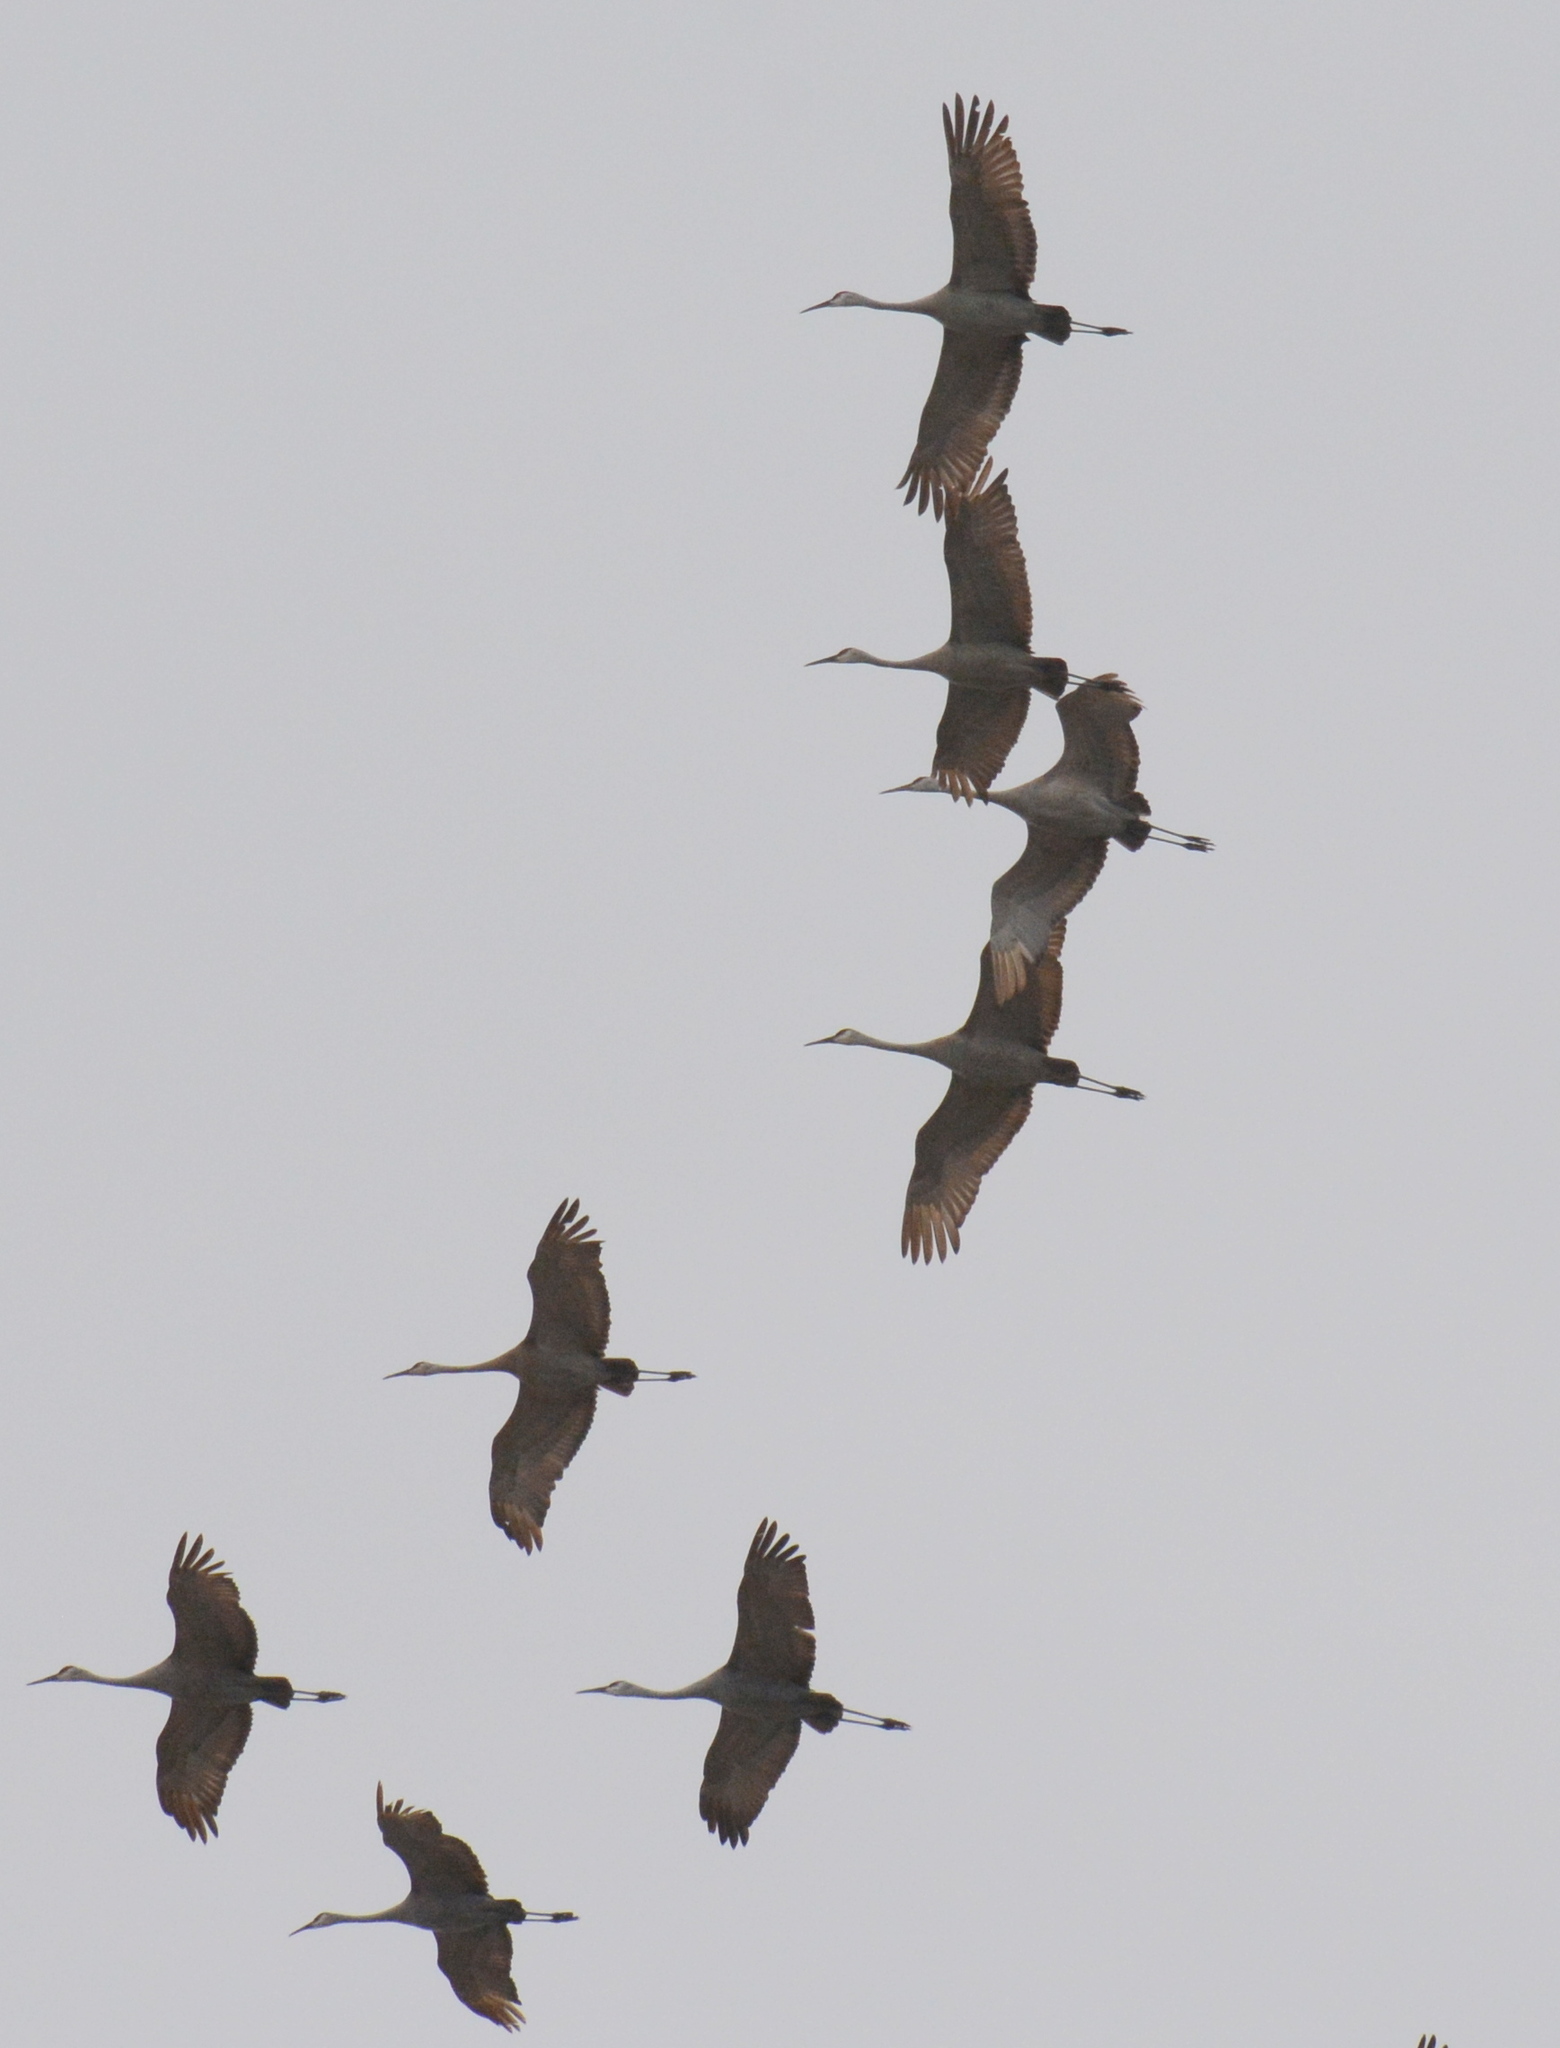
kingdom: Animalia
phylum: Chordata
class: Aves
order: Gruiformes
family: Gruidae
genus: Grus
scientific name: Grus canadensis
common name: Sandhill crane
